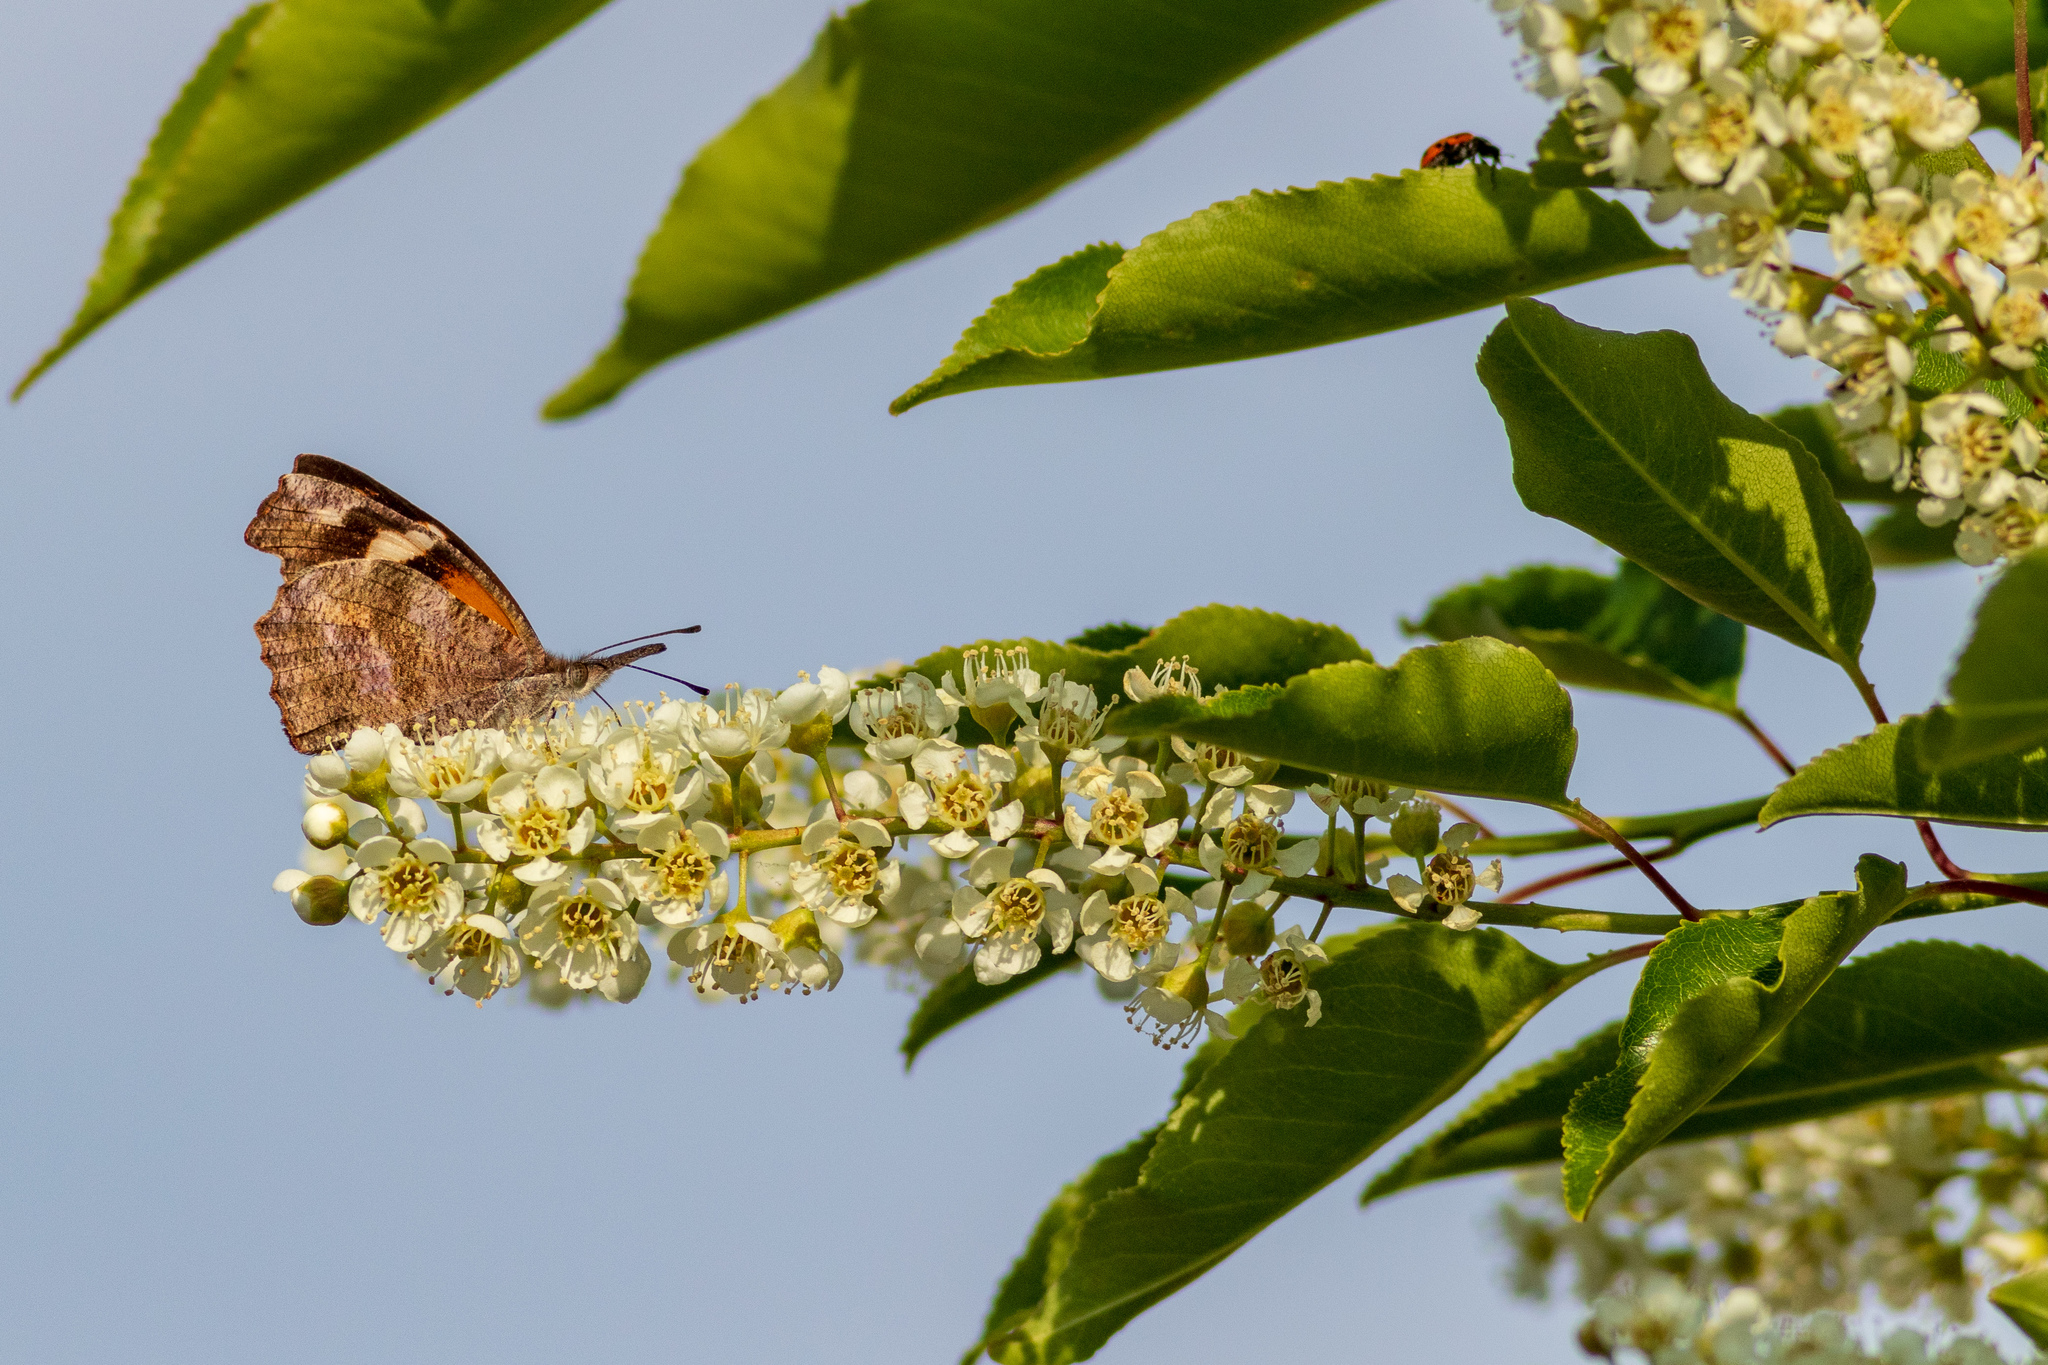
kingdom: Animalia
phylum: Arthropoda
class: Insecta
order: Lepidoptera
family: Nymphalidae
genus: Libytheana
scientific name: Libytheana carinenta
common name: American snout
